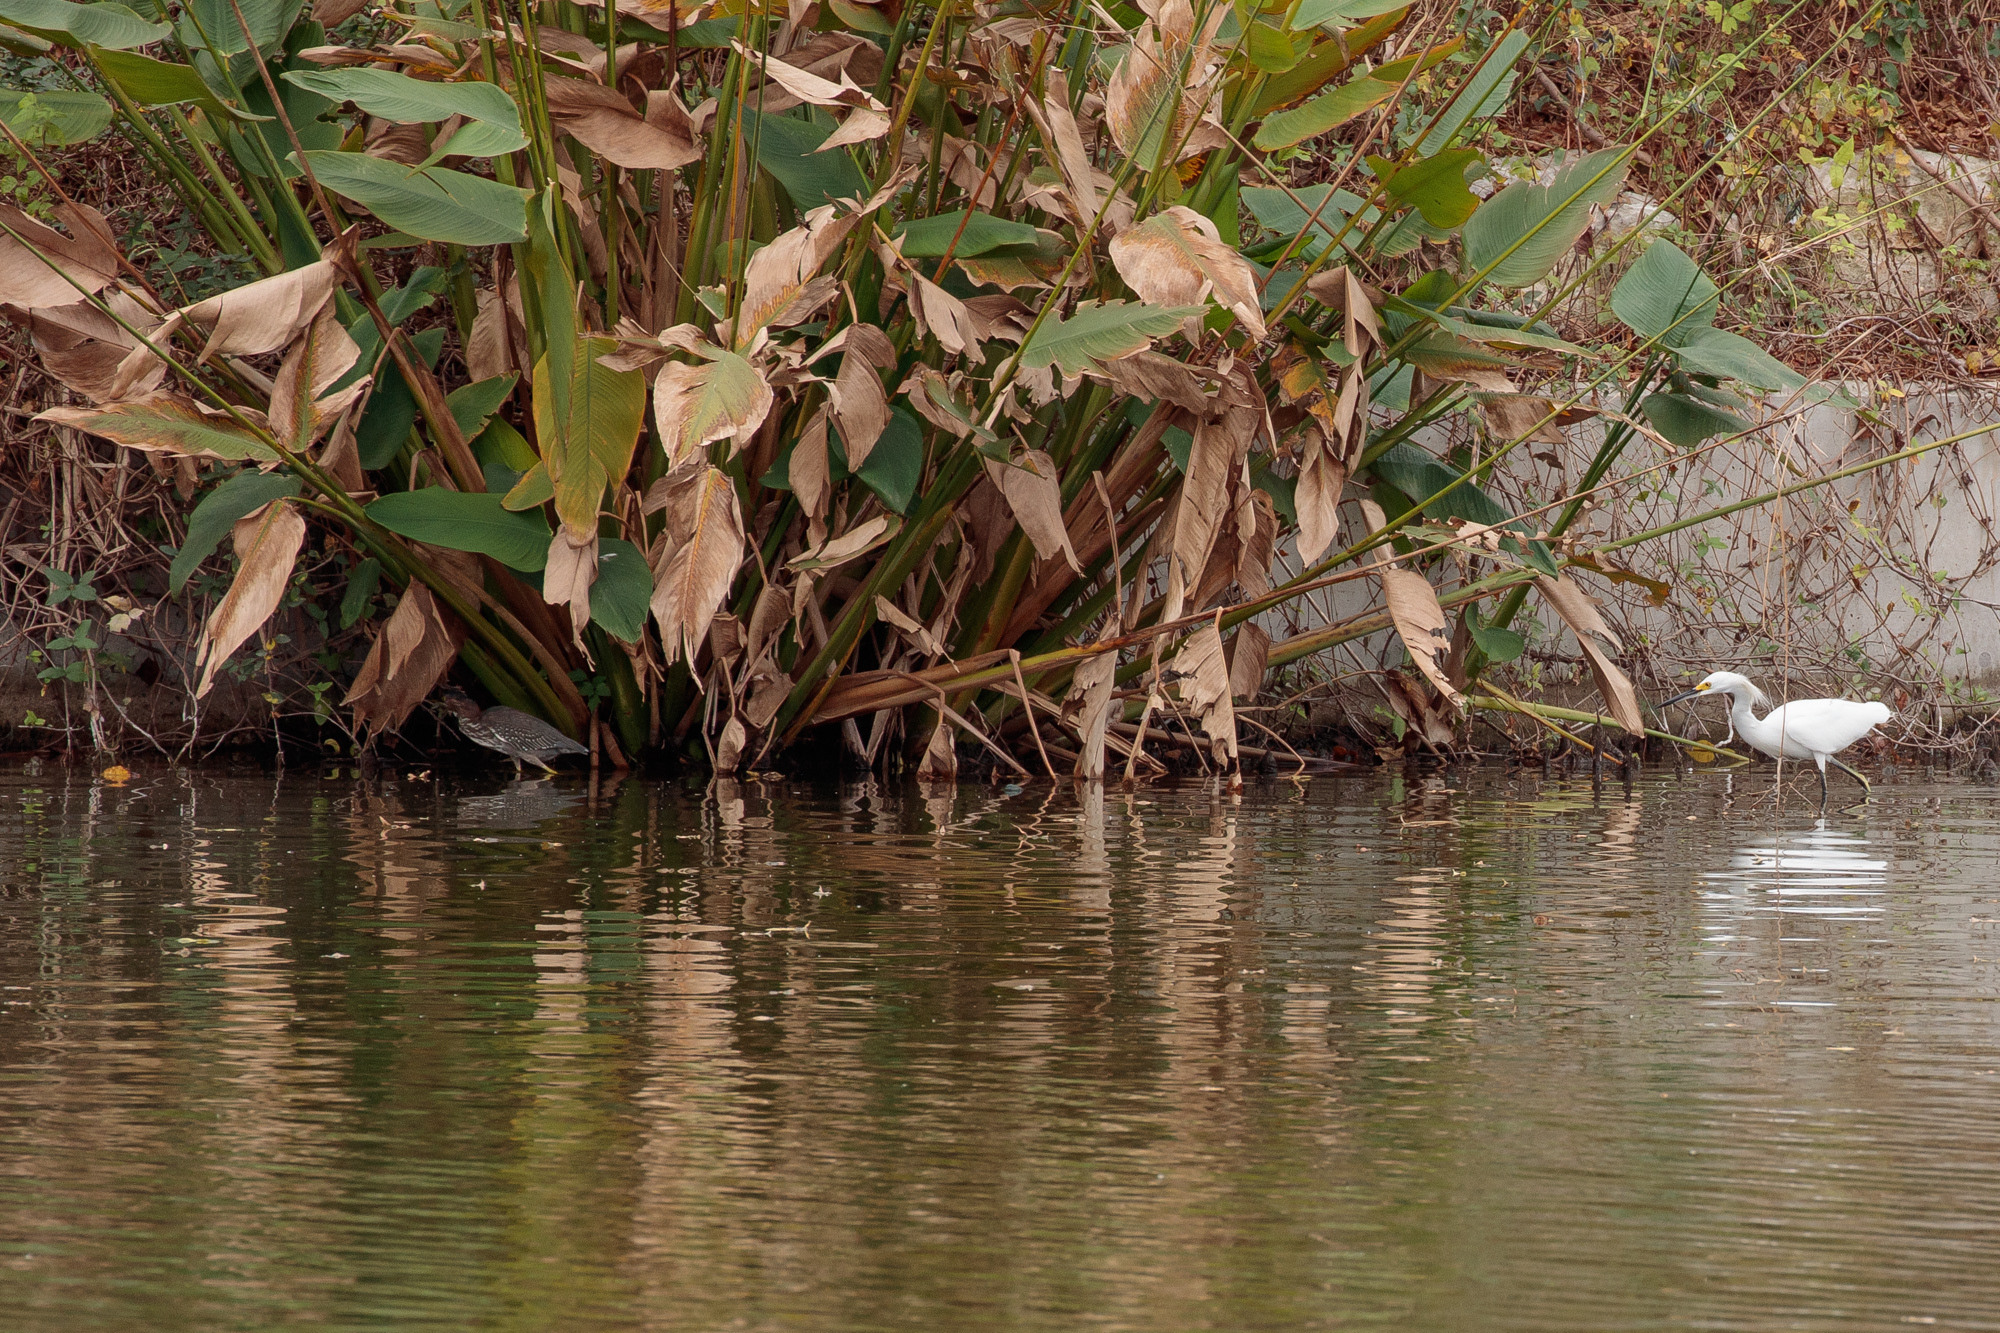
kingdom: Animalia
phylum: Chordata
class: Aves
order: Pelecaniformes
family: Ardeidae
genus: Butorides
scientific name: Butorides virescens
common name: Green heron
